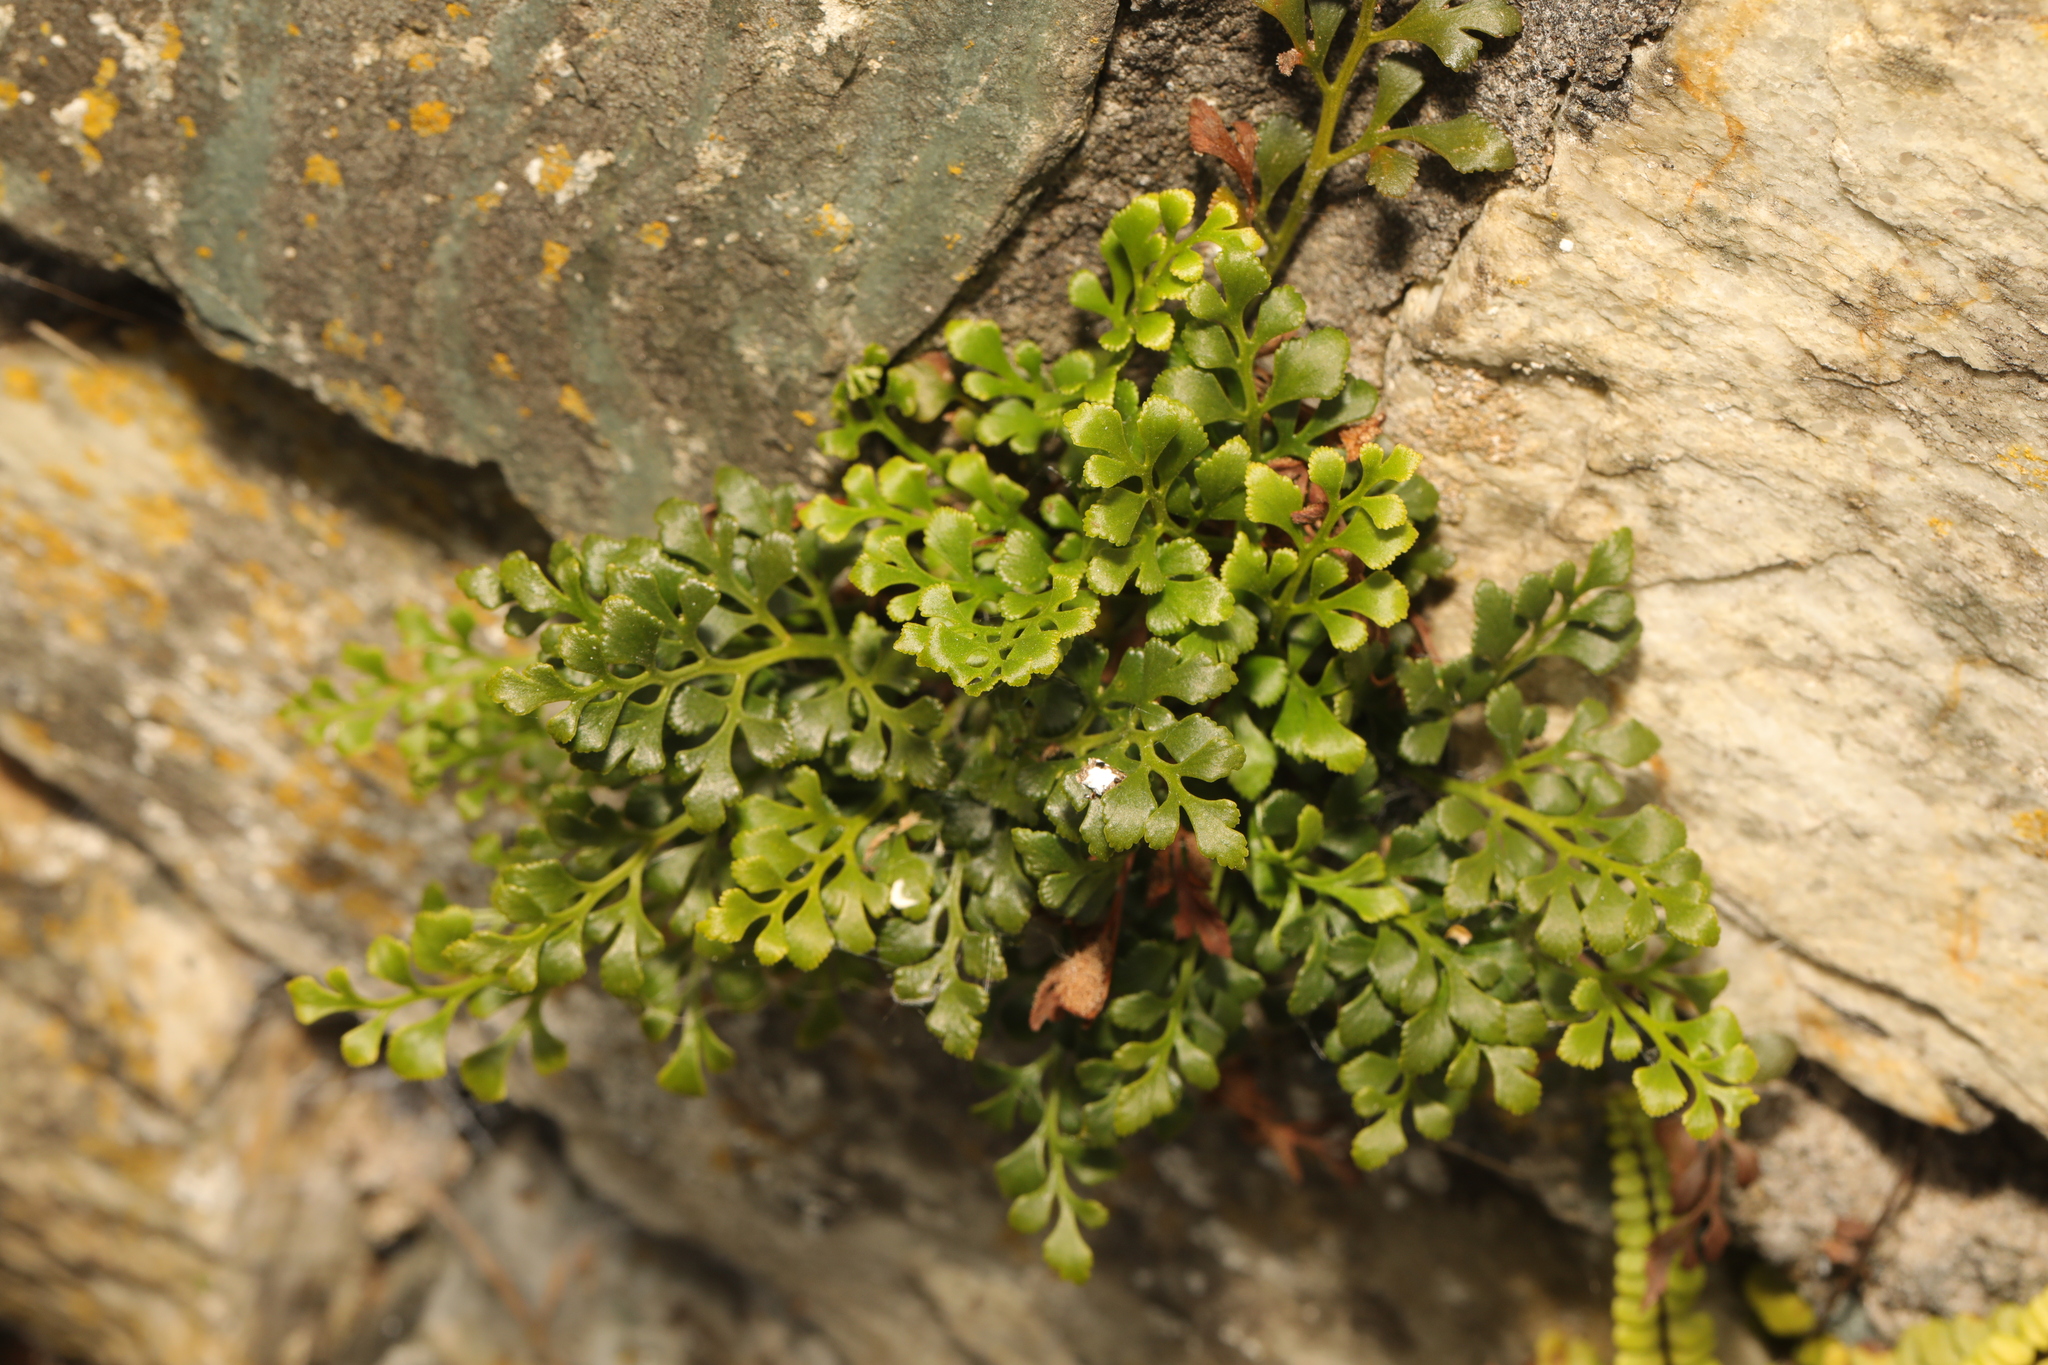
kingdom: Plantae
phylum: Tracheophyta
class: Polypodiopsida
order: Polypodiales
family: Aspleniaceae
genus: Asplenium
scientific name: Asplenium ruta-muraria
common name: Wall-rue
